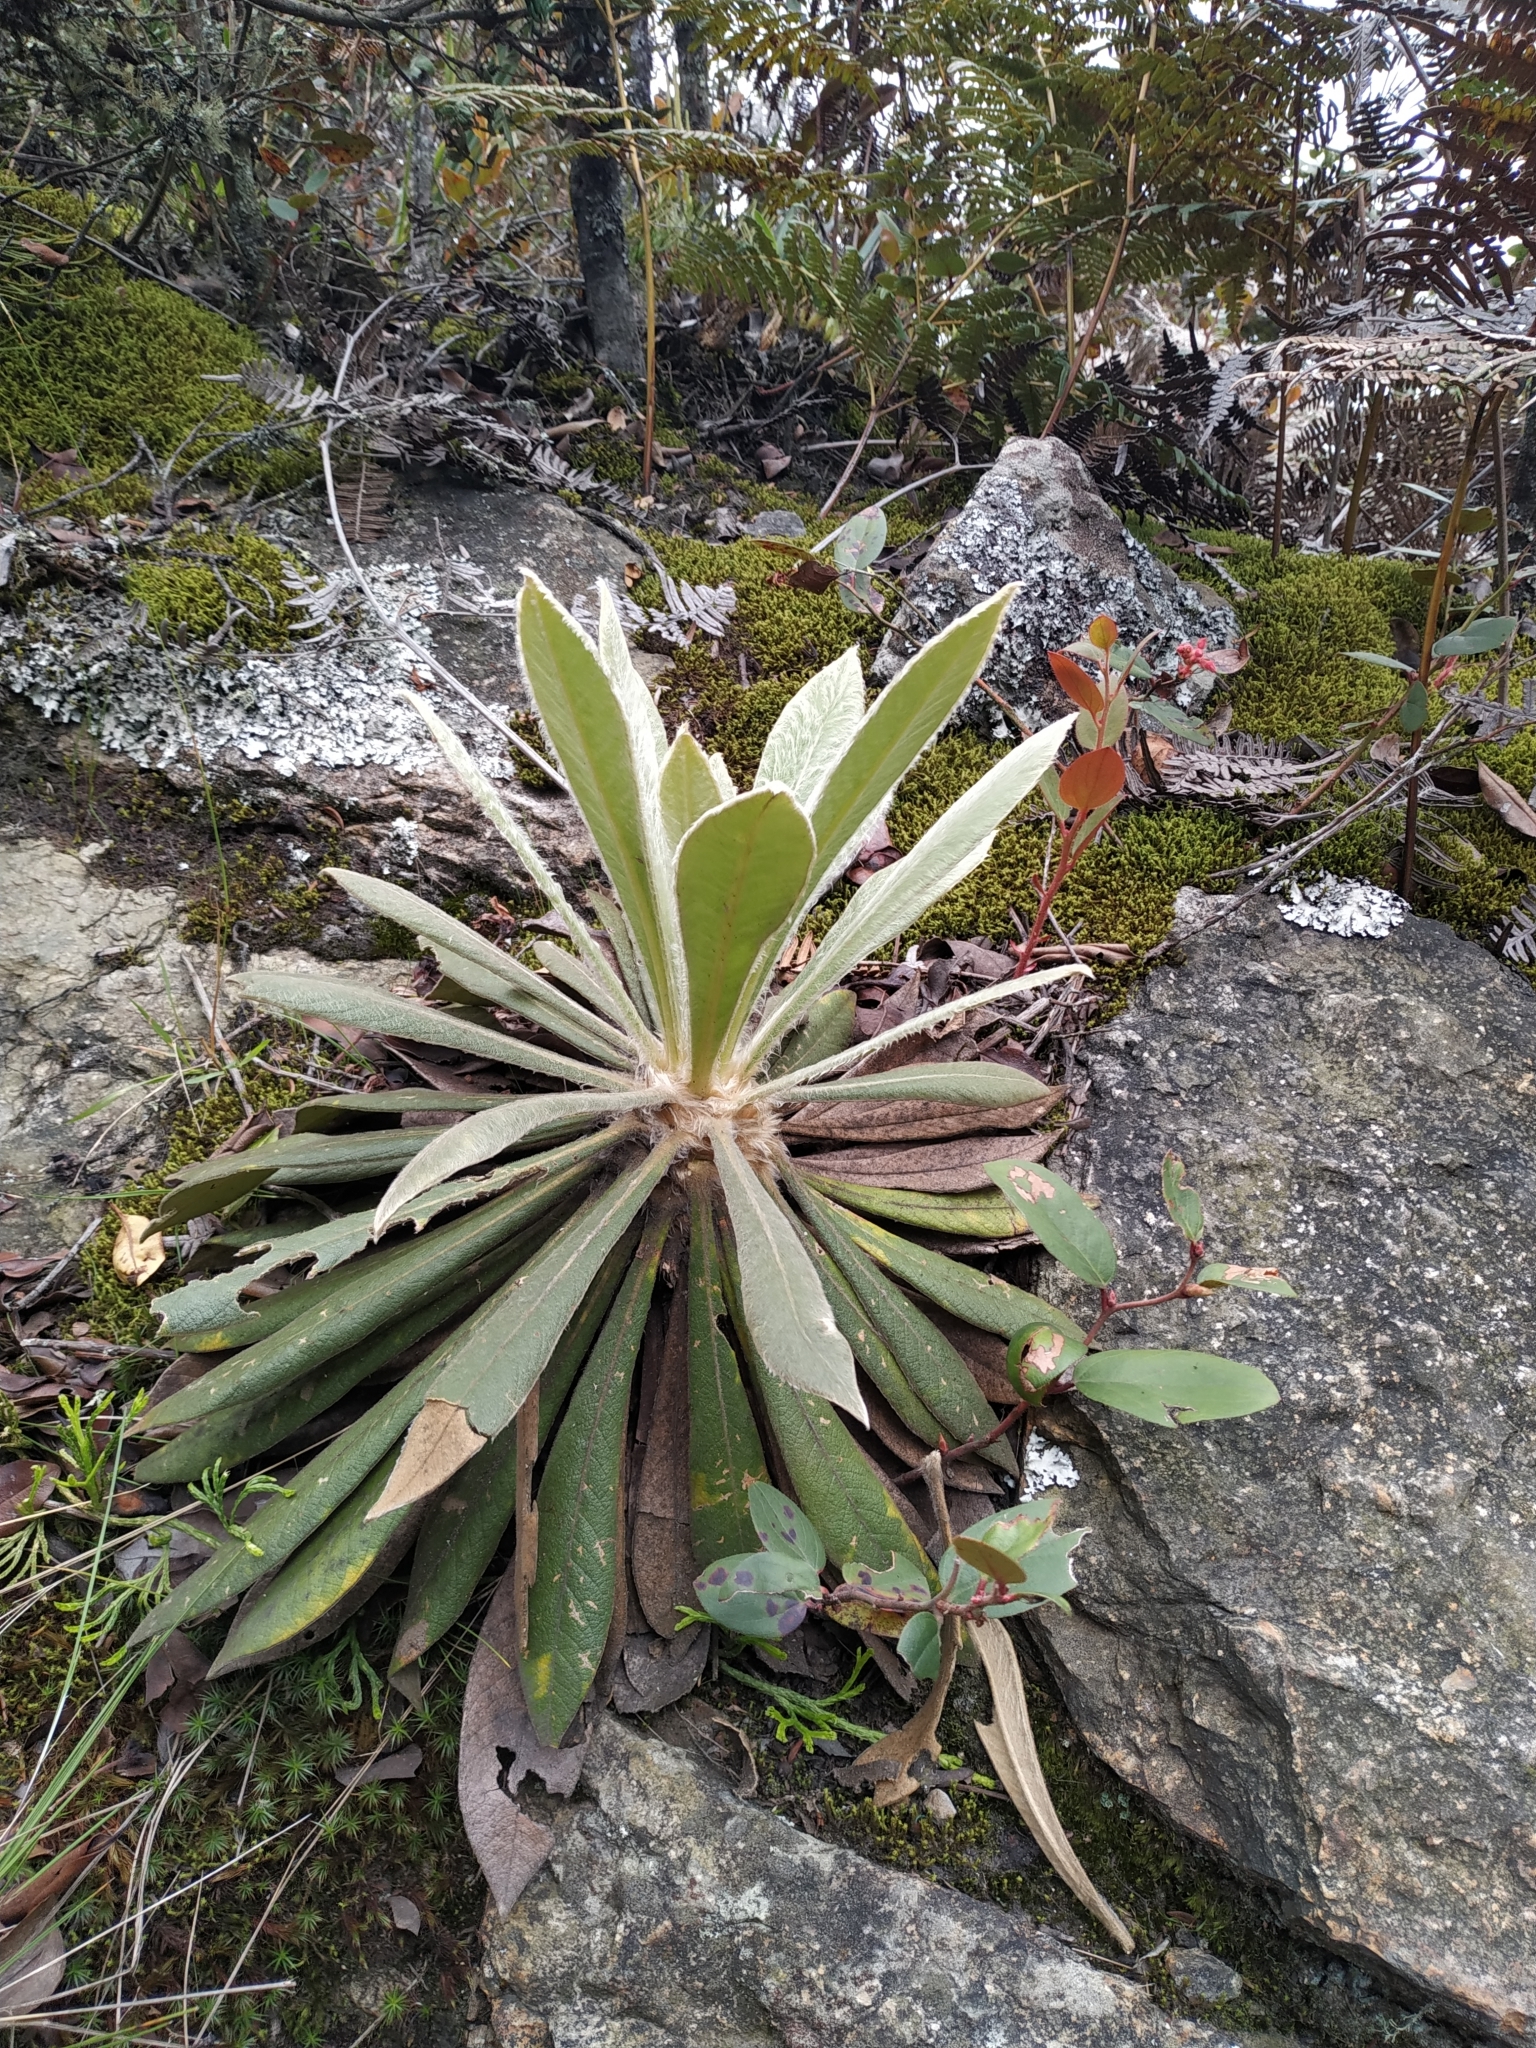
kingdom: Plantae
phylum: Tracheophyta
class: Magnoliopsida
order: Asterales
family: Asteraceae
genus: Espeletia
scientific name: Espeletia corymbosa
